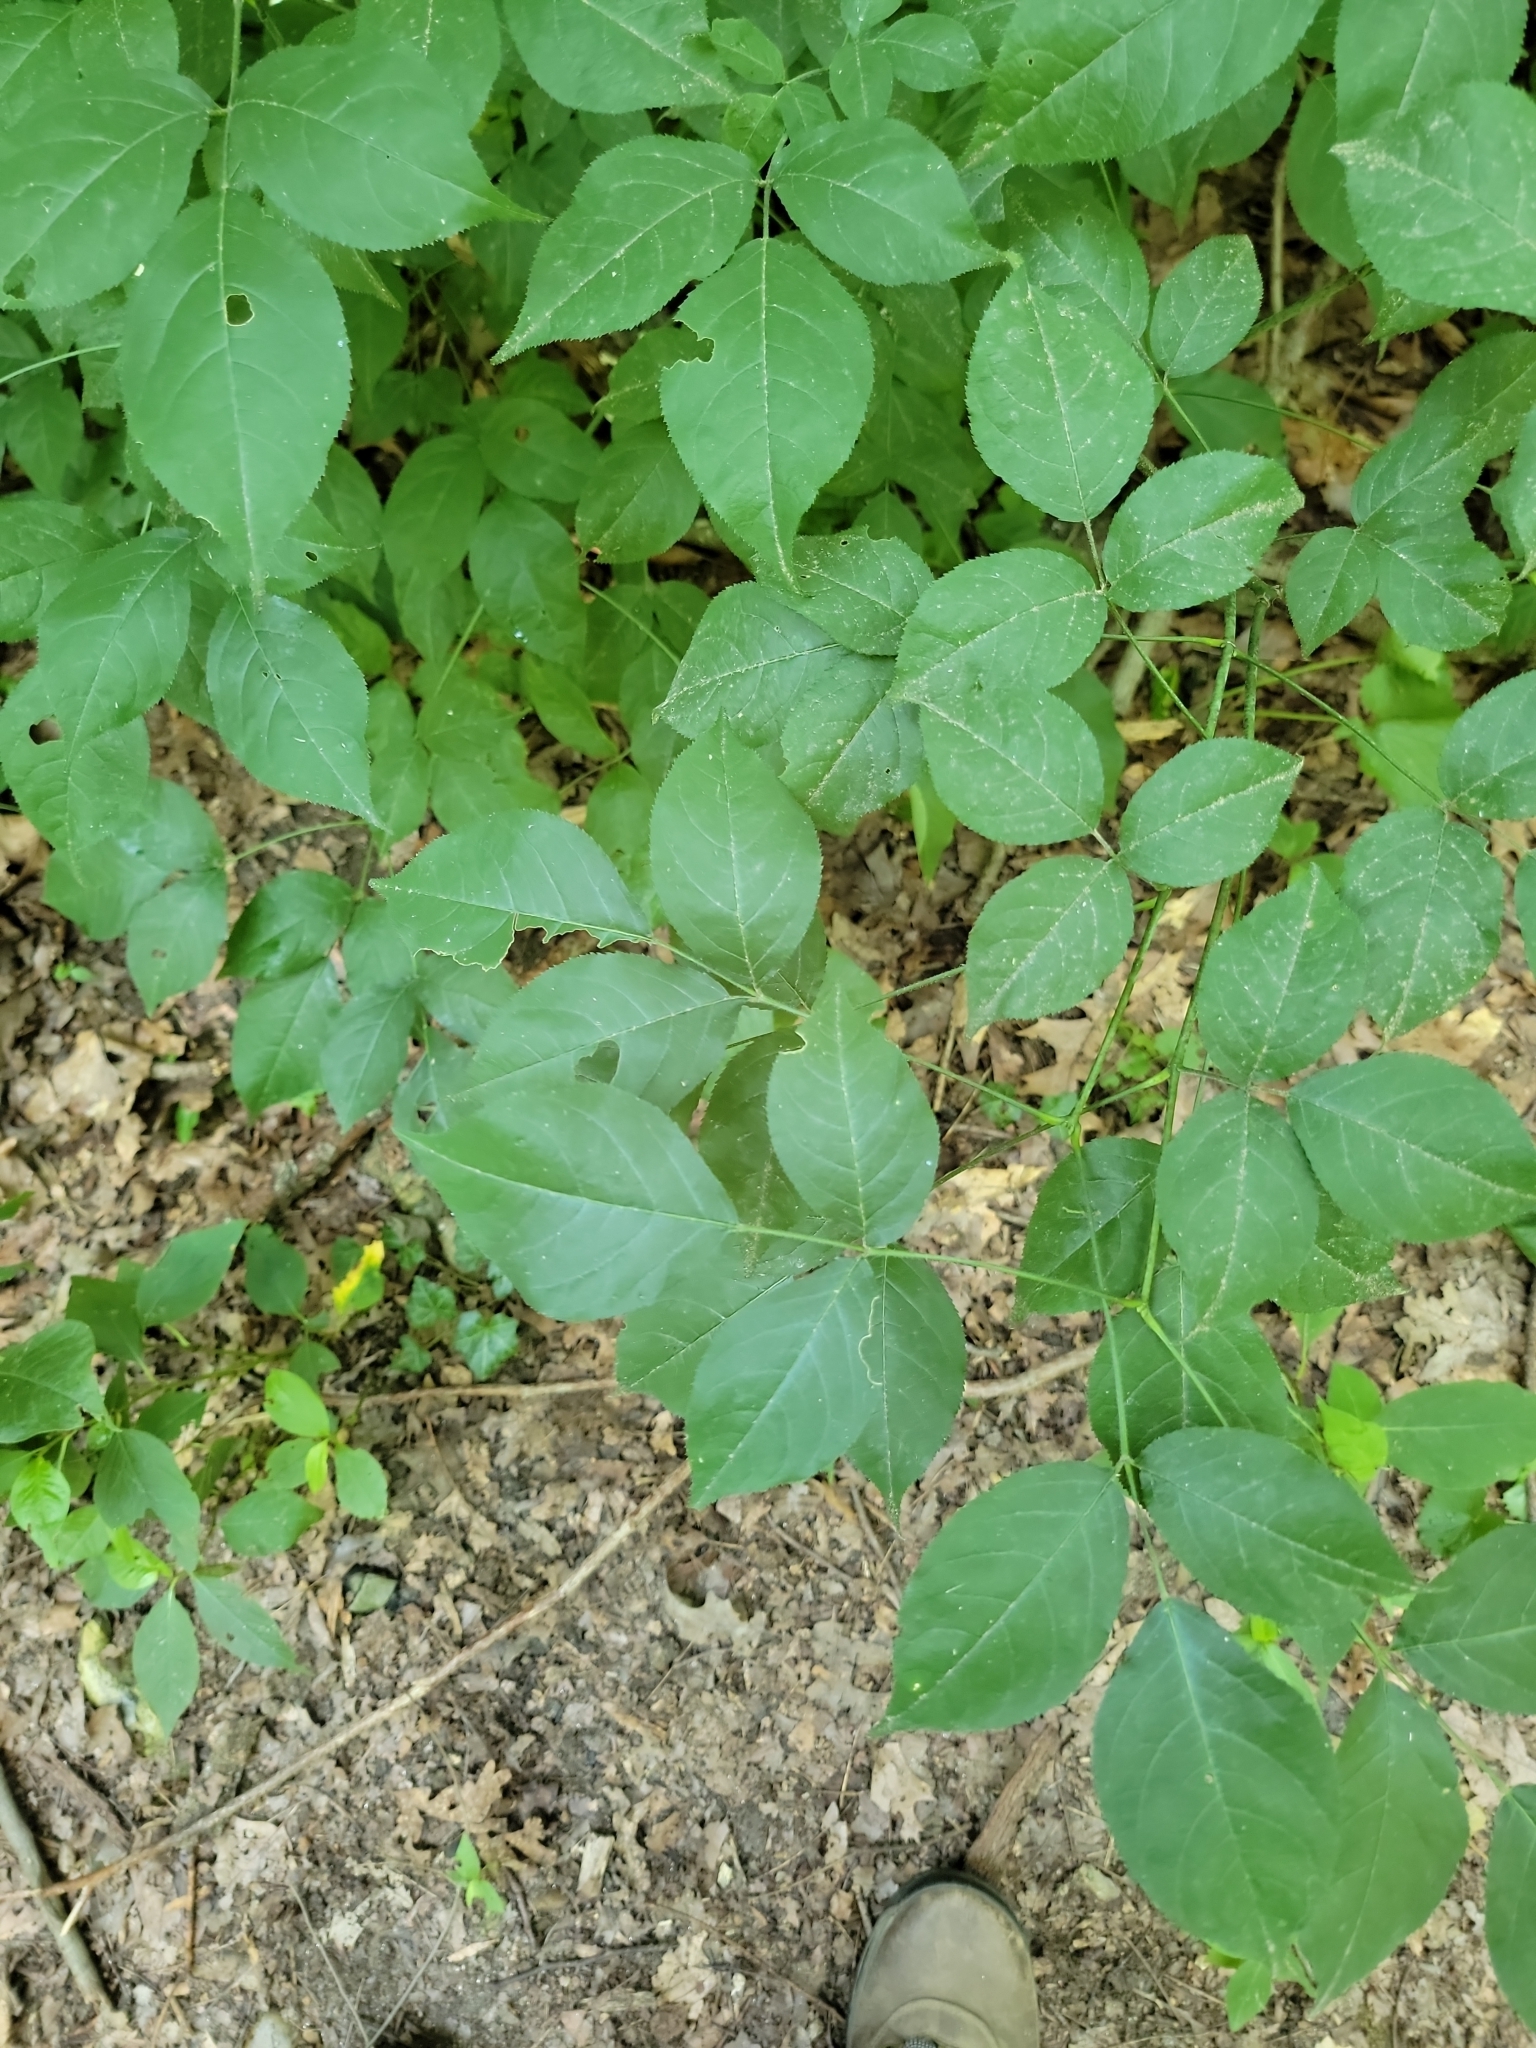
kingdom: Plantae
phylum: Tracheophyta
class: Magnoliopsida
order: Crossosomatales
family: Staphyleaceae
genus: Staphylea
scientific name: Staphylea trifolia
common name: American bladdernut
